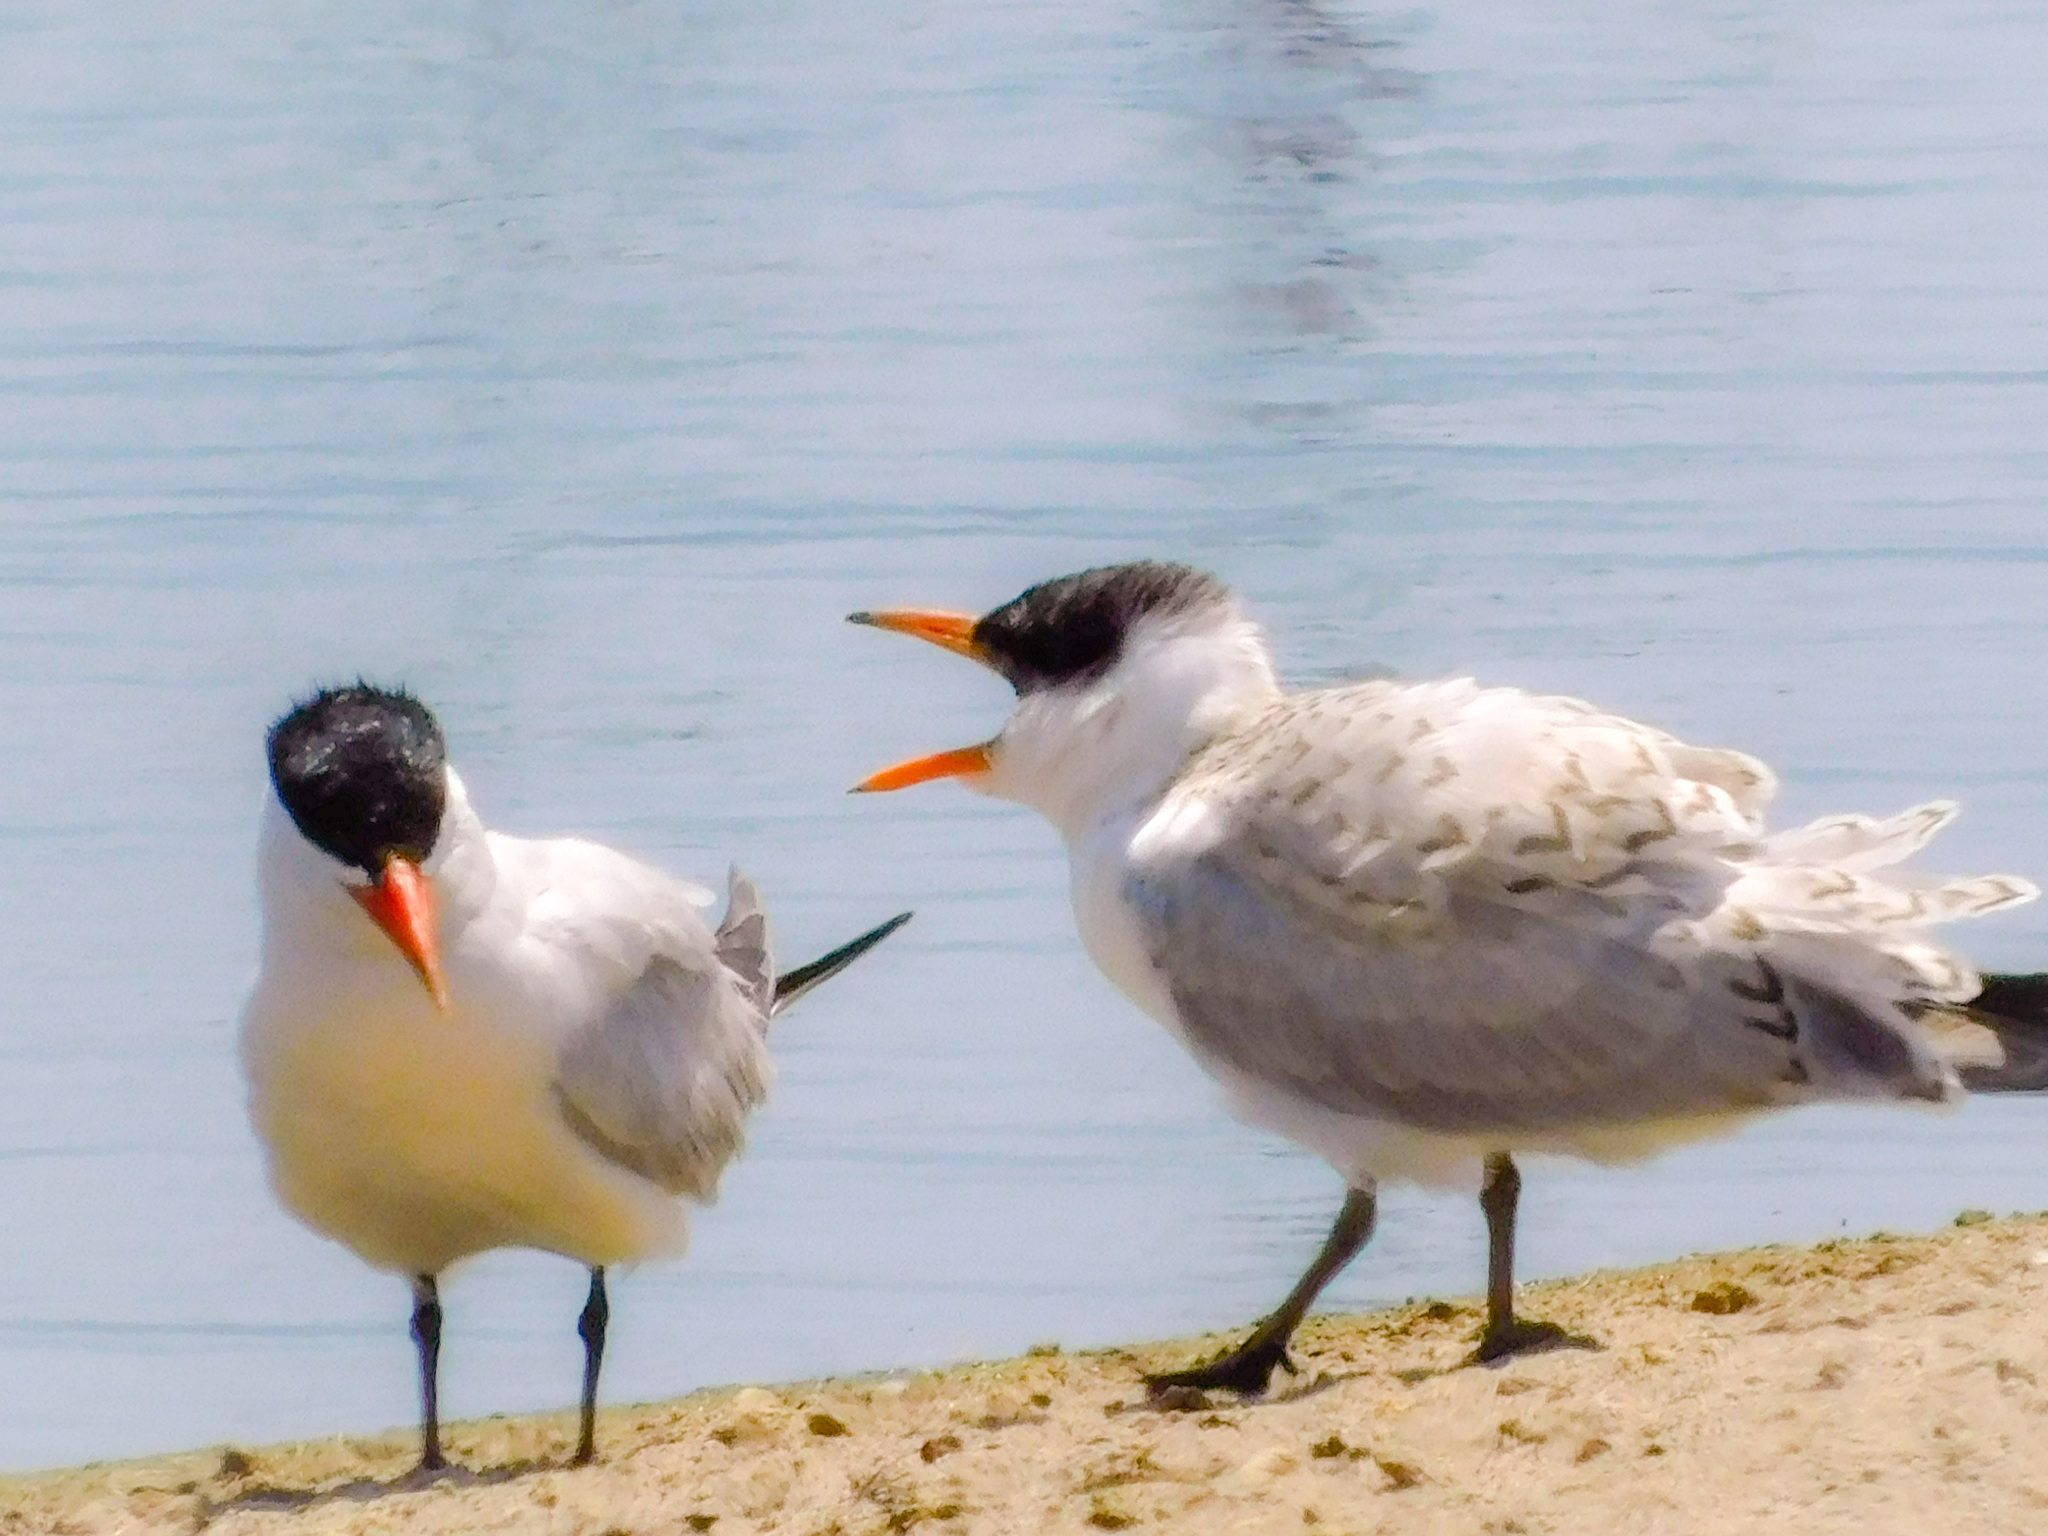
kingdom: Animalia
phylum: Chordata
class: Aves
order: Charadriiformes
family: Laridae
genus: Hydroprogne
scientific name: Hydroprogne caspia
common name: Caspian tern
